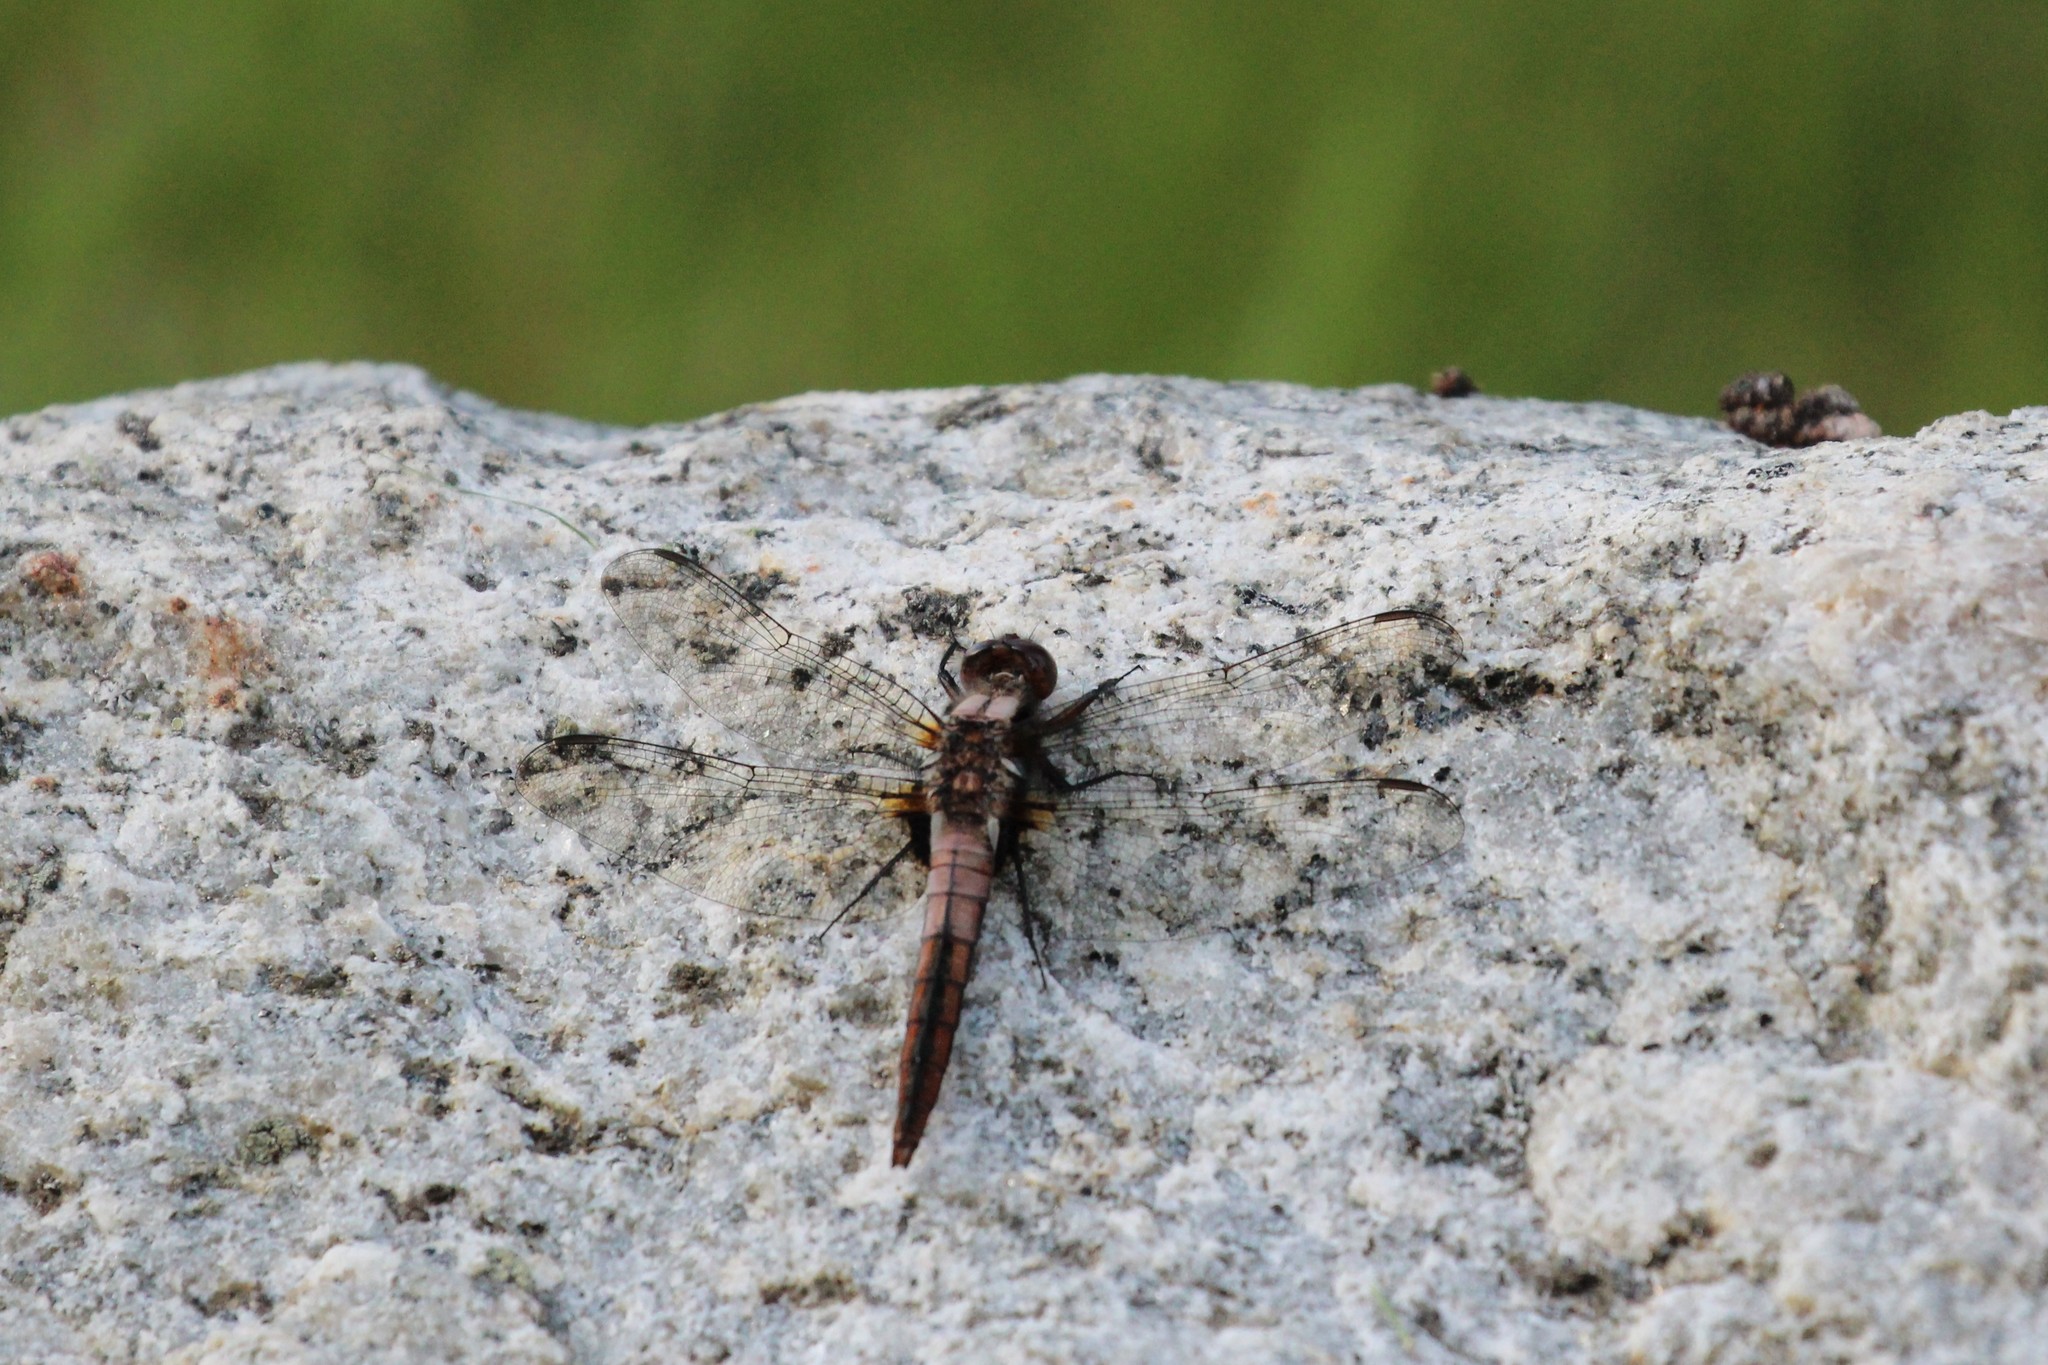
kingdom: Animalia
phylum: Arthropoda
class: Insecta
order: Odonata
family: Libellulidae
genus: Ladona
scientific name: Ladona julia
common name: Chalk-fronted corporal
